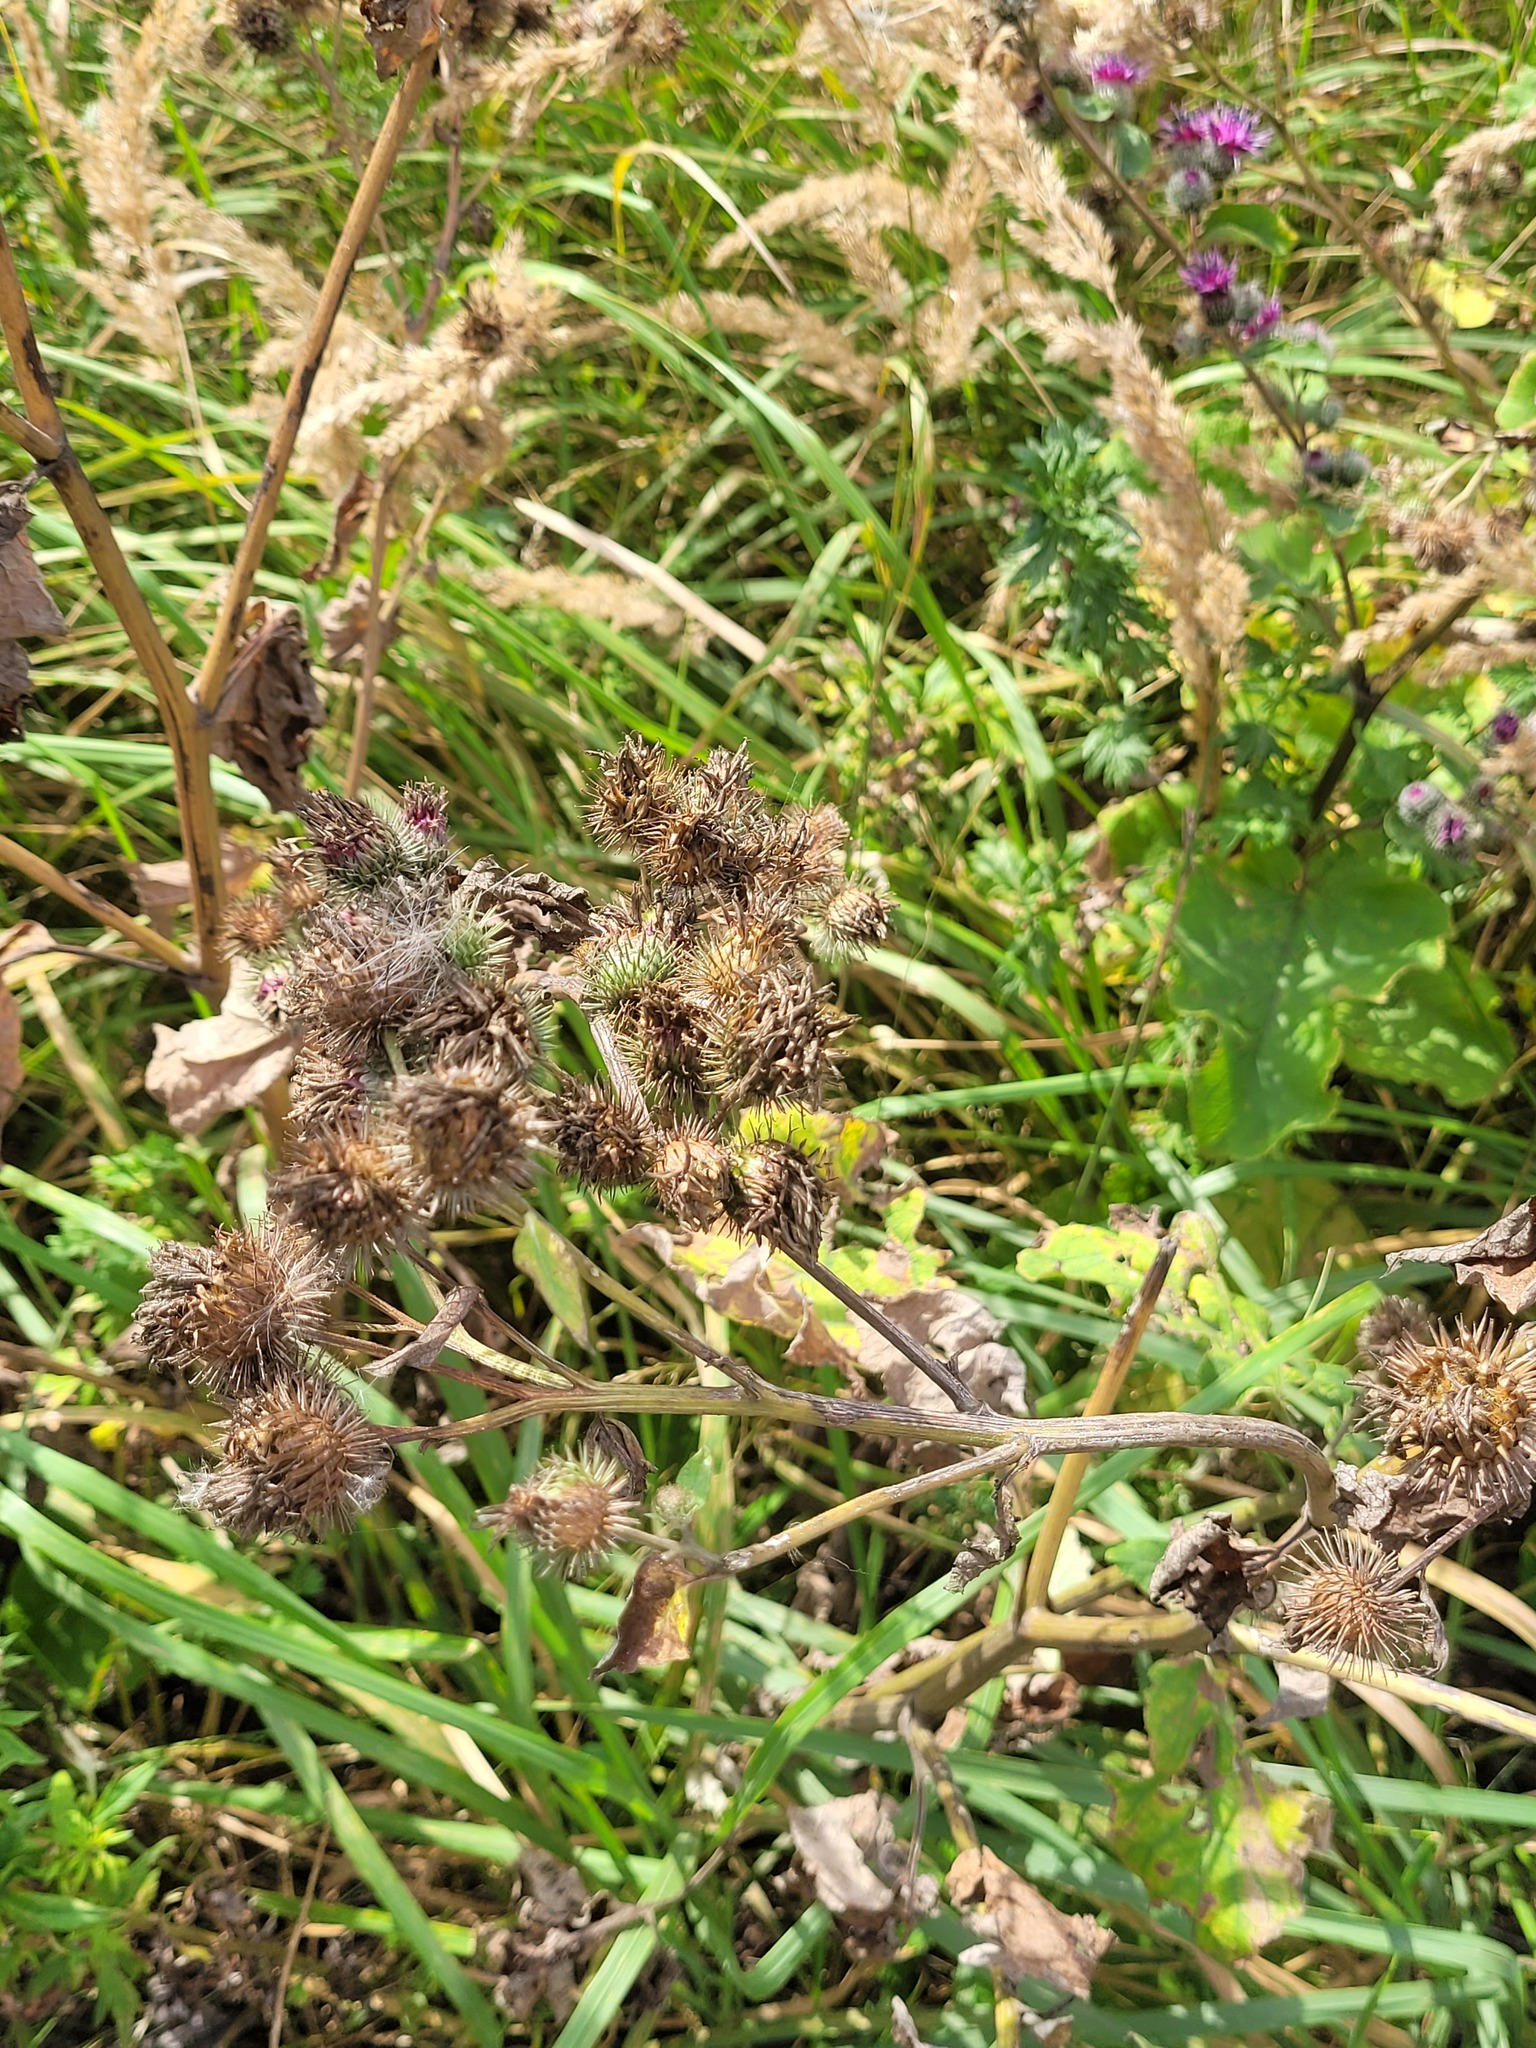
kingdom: Plantae
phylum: Tracheophyta
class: Magnoliopsida
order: Asterales
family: Asteraceae
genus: Arctium
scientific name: Arctium tomentosum
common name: Woolly burdock
